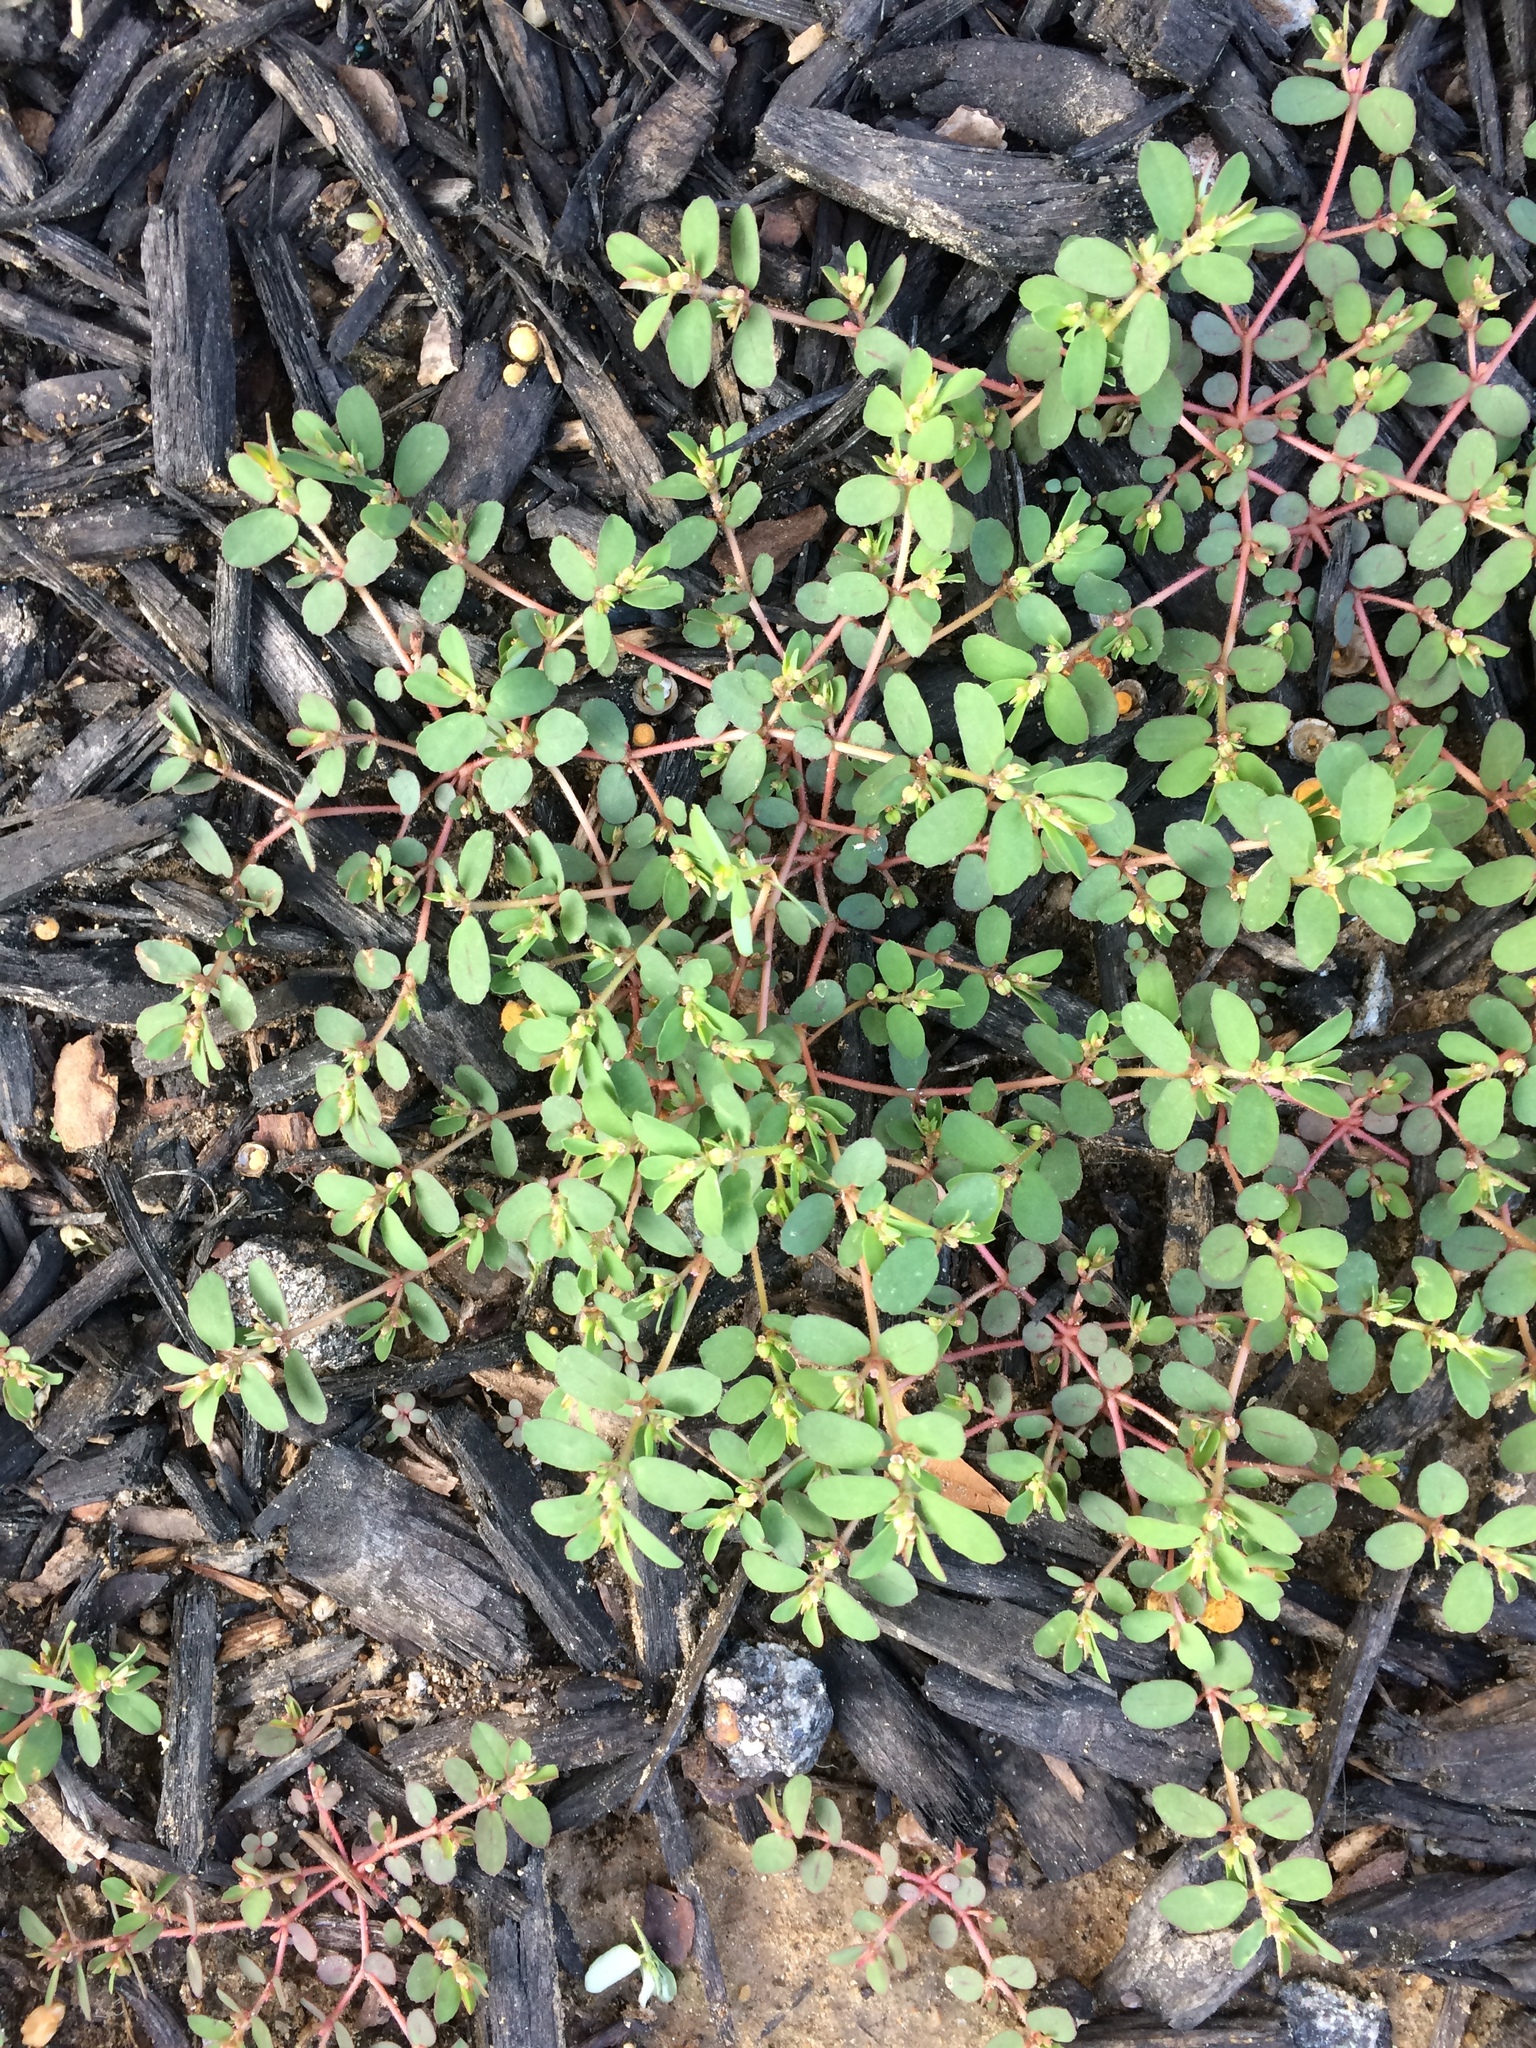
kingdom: Plantae
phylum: Tracheophyta
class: Magnoliopsida
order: Malpighiales
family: Euphorbiaceae
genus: Euphorbia
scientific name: Euphorbia maculata
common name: Spotted spurge
